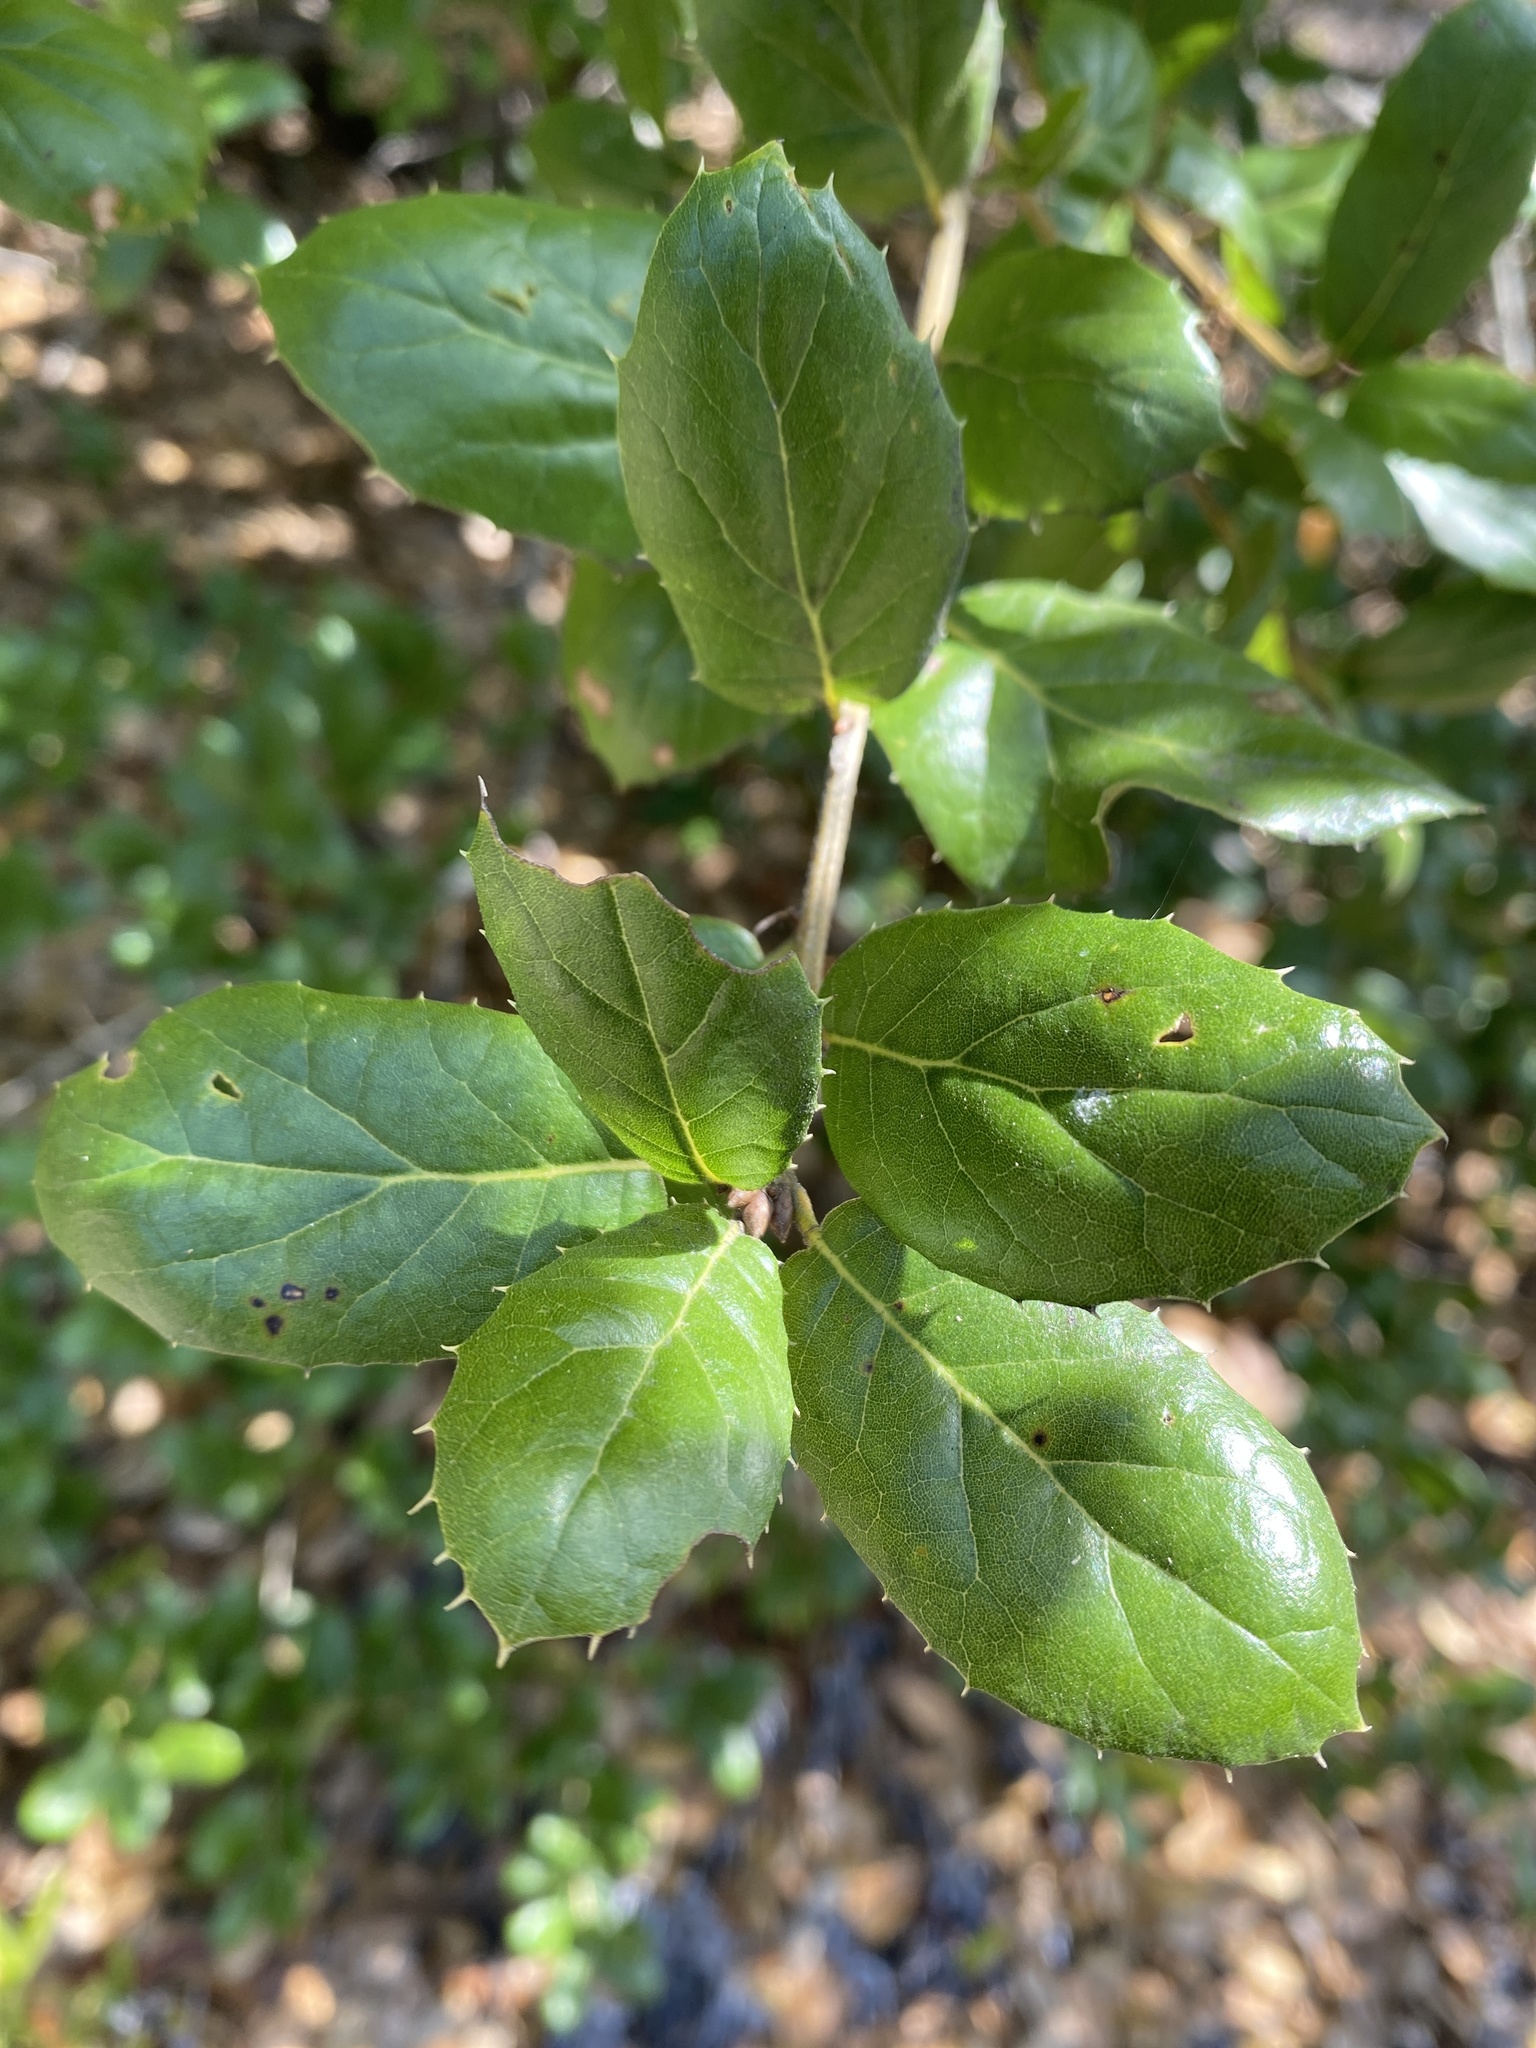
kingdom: Plantae
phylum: Tracheophyta
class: Magnoliopsida
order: Fagales
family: Fagaceae
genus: Quercus
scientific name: Quercus agrifolia
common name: California live oak
